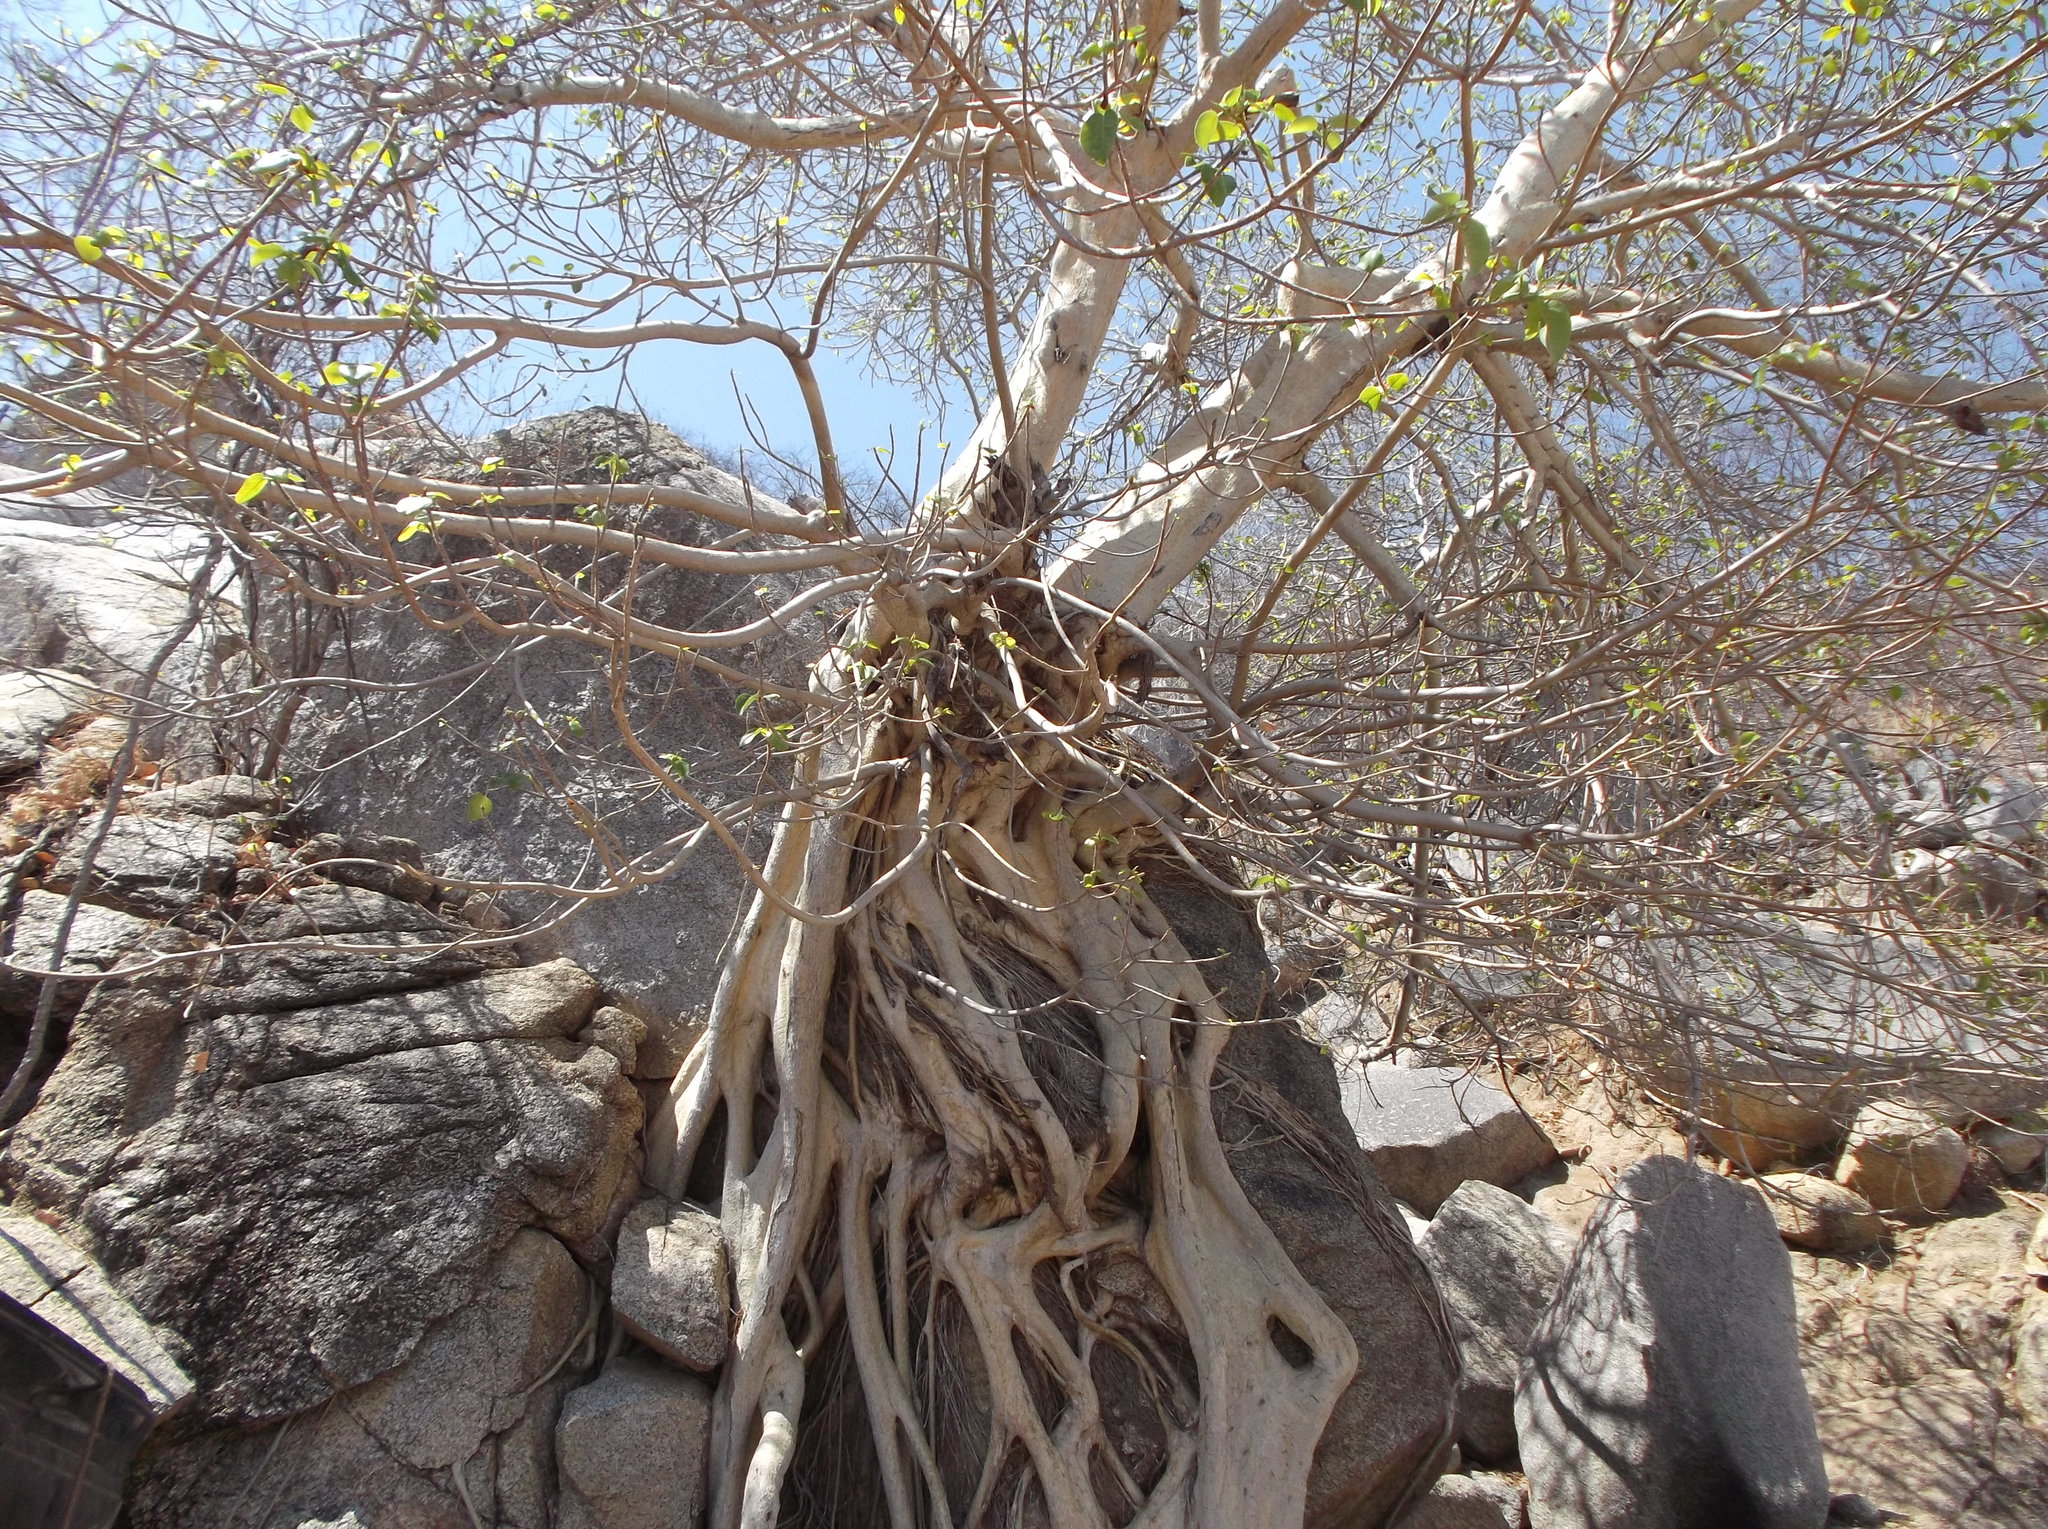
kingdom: Plantae
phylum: Tracheophyta
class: Magnoliopsida
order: Rosales
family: Moraceae
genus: Ficus
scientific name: Ficus petiolaris
